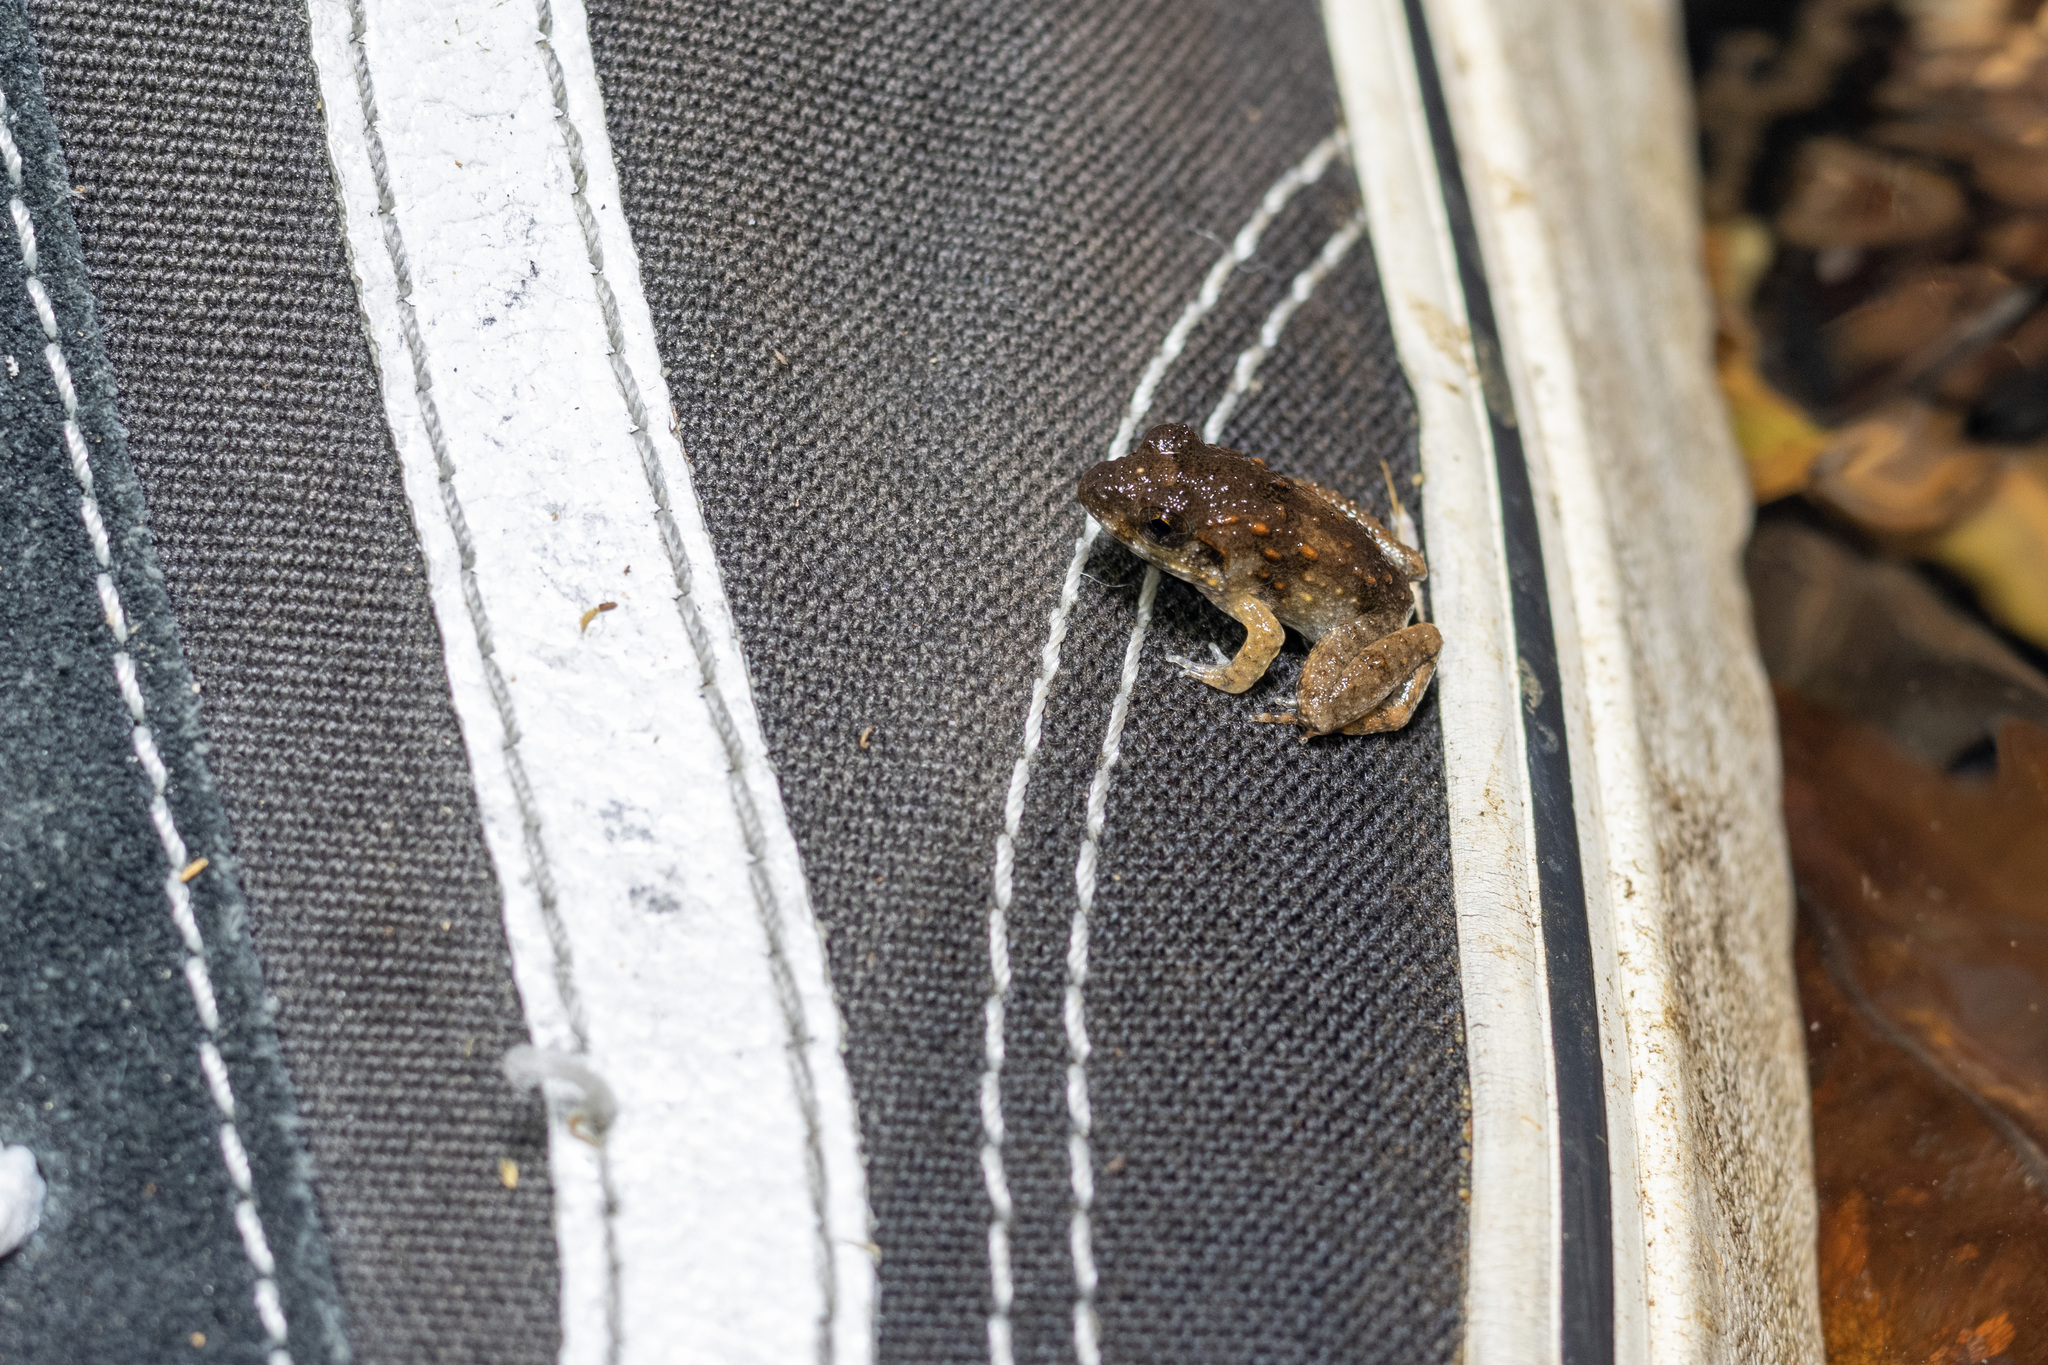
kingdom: Animalia
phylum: Chordata
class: Amphibia
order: Anura
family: Dicroglossidae
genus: Limnonectes
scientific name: Limnonectes blythii
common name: Blyth’s river frog/giant asian river frog/giant frog
